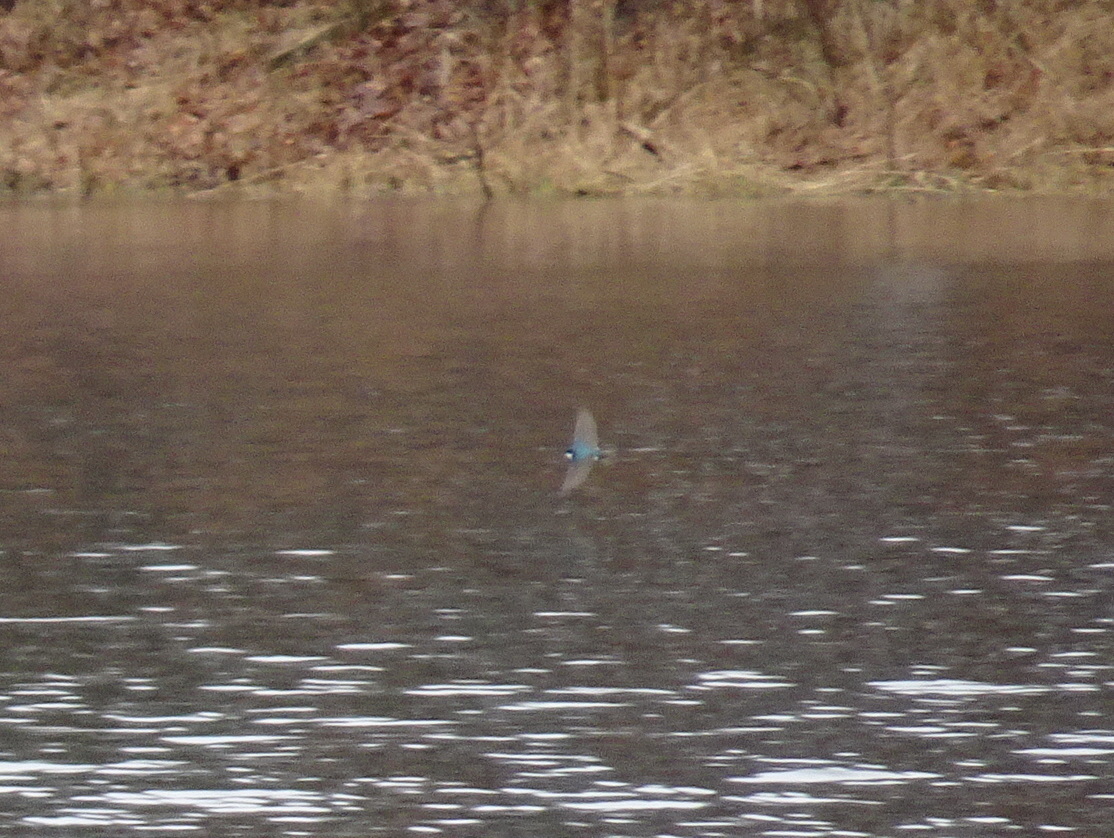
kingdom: Animalia
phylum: Chordata
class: Aves
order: Passeriformes
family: Hirundinidae
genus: Tachycineta
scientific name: Tachycineta bicolor
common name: Tree swallow
